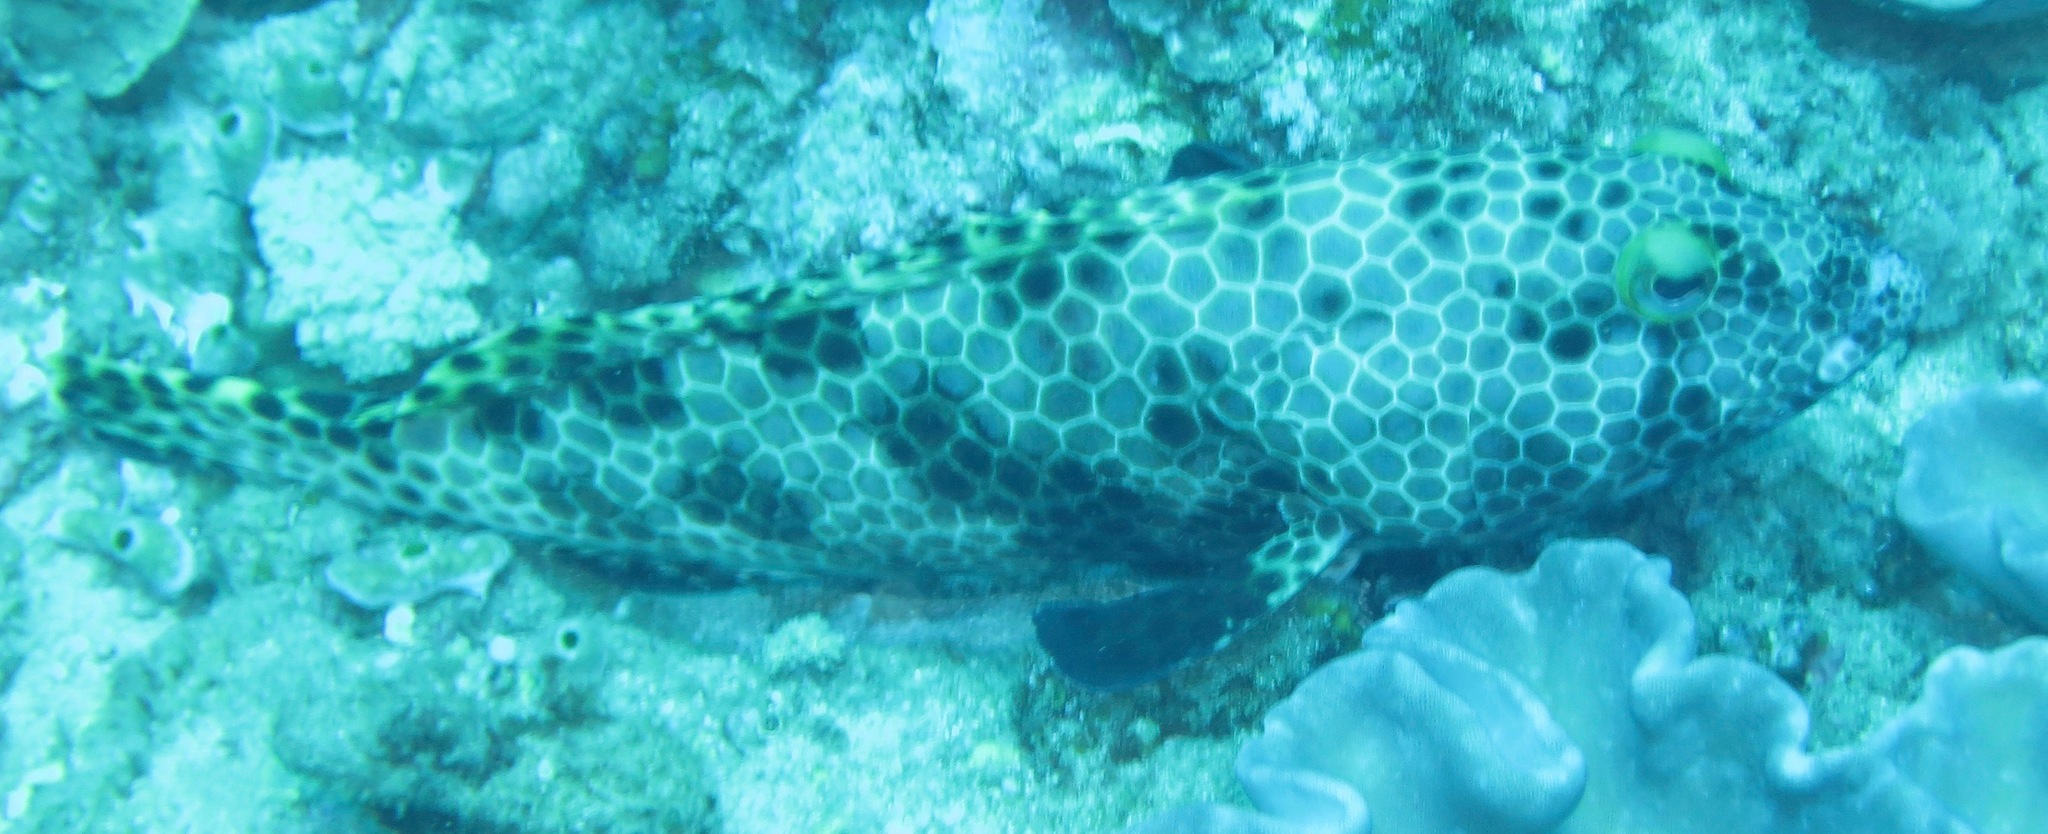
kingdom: Animalia
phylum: Chordata
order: Perciformes
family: Serranidae
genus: Epinephelus
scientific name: Epinephelus macrospilos
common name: Snubnose grouper
